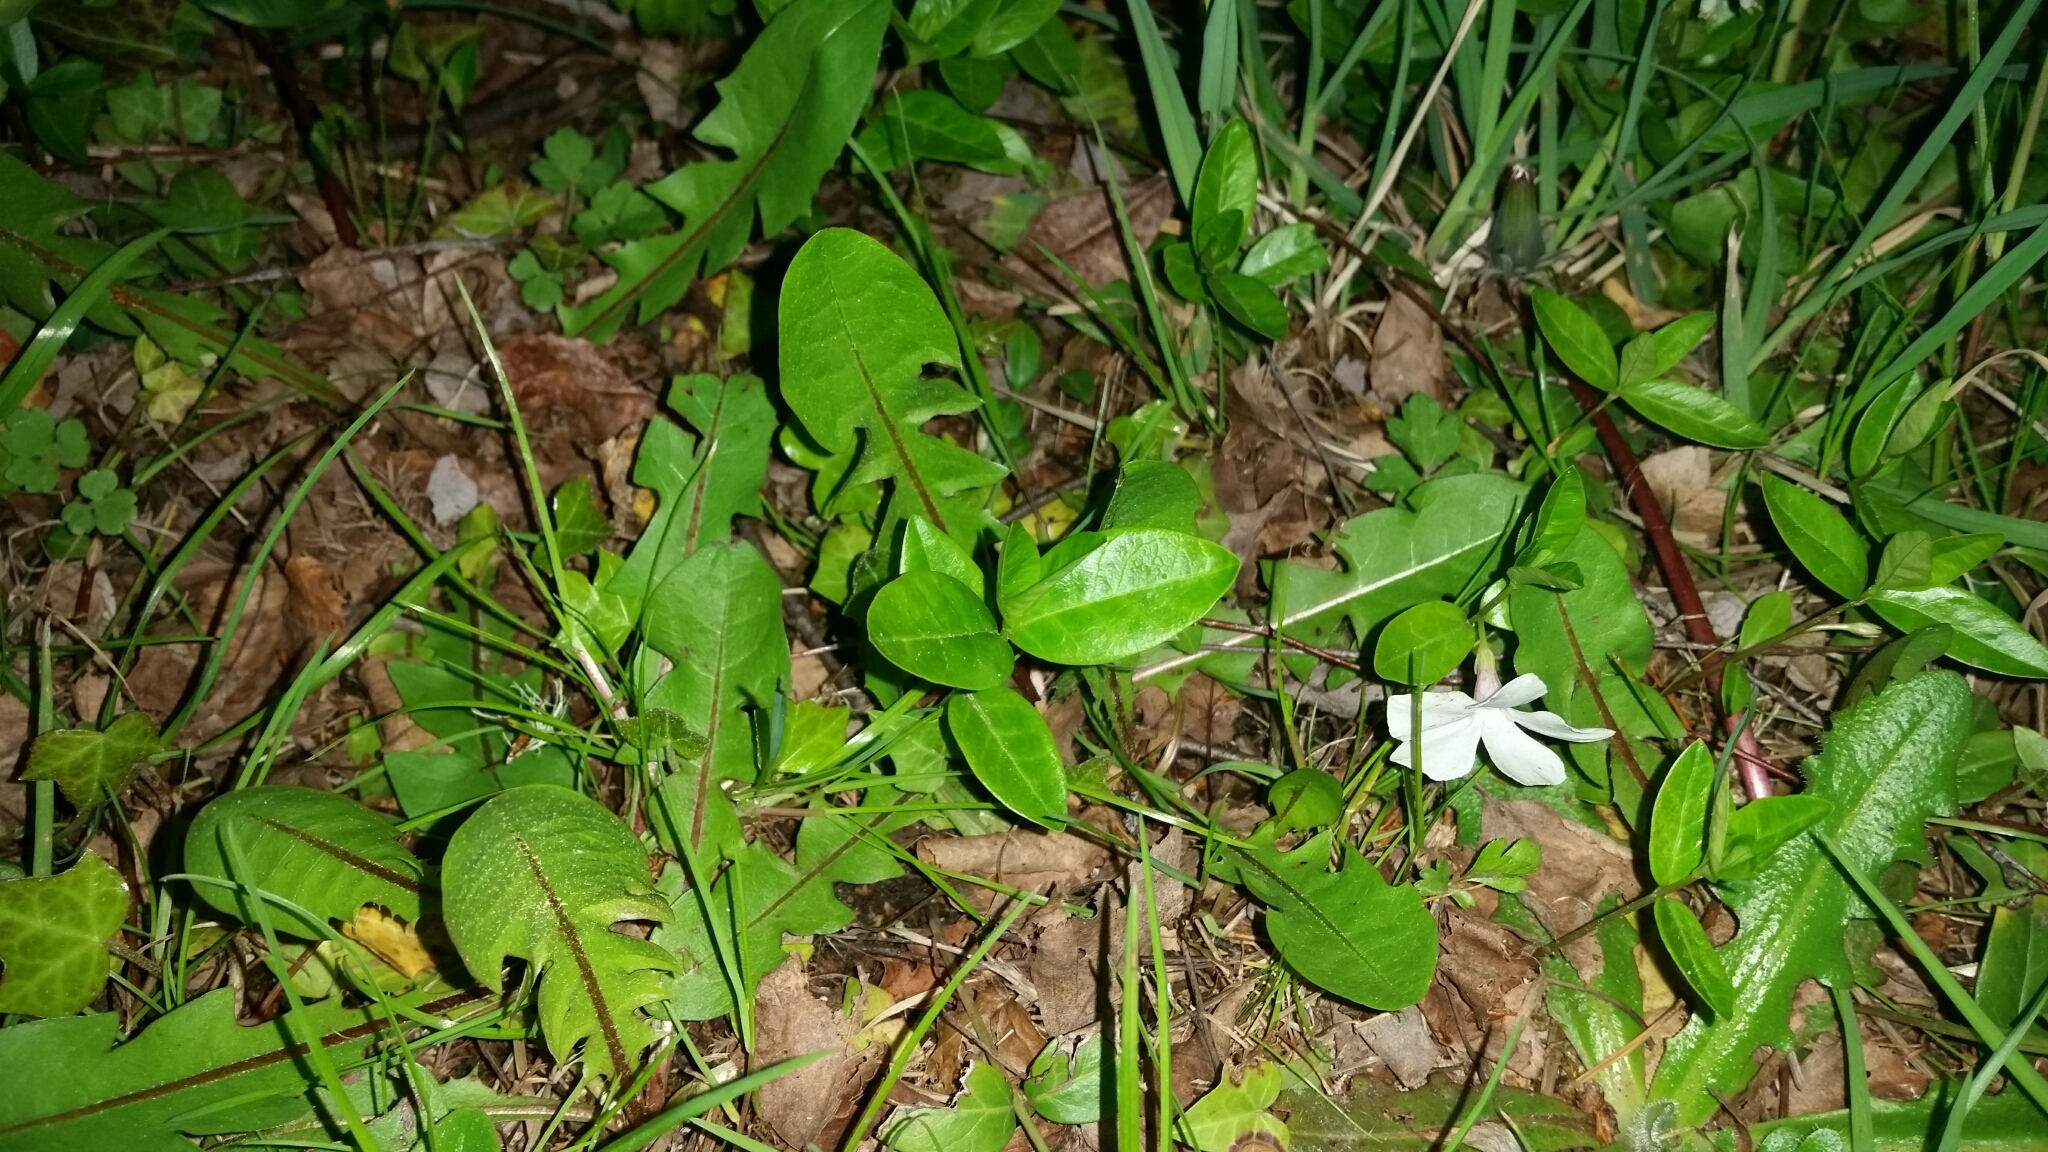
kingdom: Plantae
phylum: Tracheophyta
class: Magnoliopsida
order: Gentianales
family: Apocynaceae
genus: Vinca
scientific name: Vinca minor
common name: Lesser periwinkle
